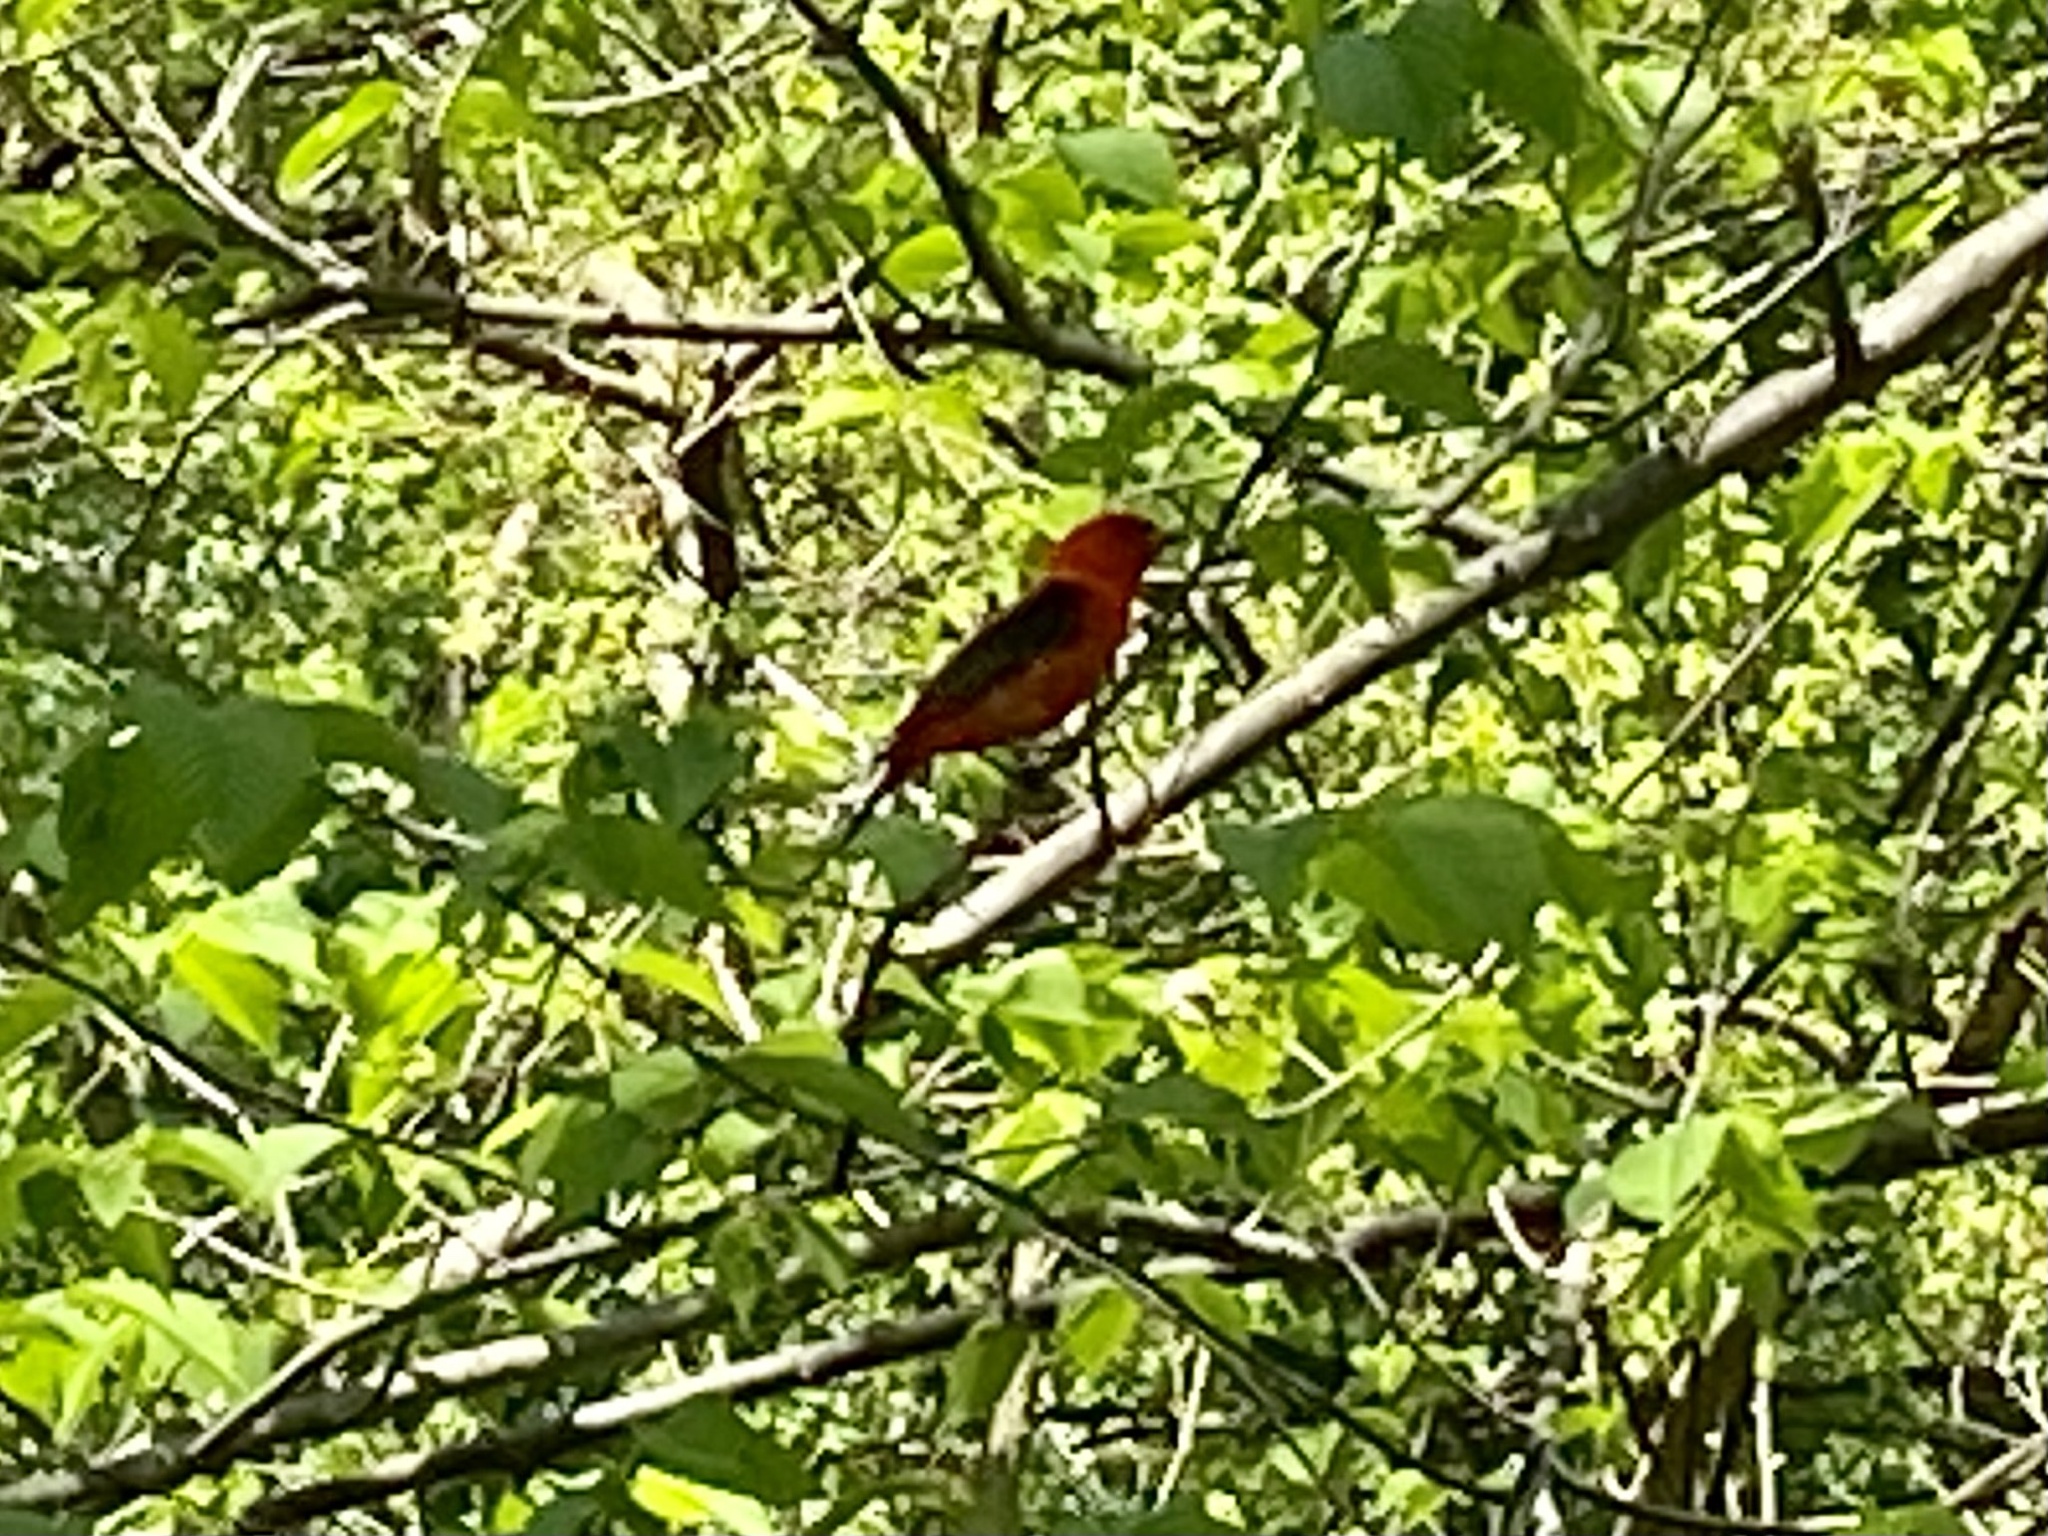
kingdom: Animalia
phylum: Chordata
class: Aves
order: Passeriformes
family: Cardinalidae
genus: Piranga
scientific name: Piranga olivacea
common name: Scarlet tanager
